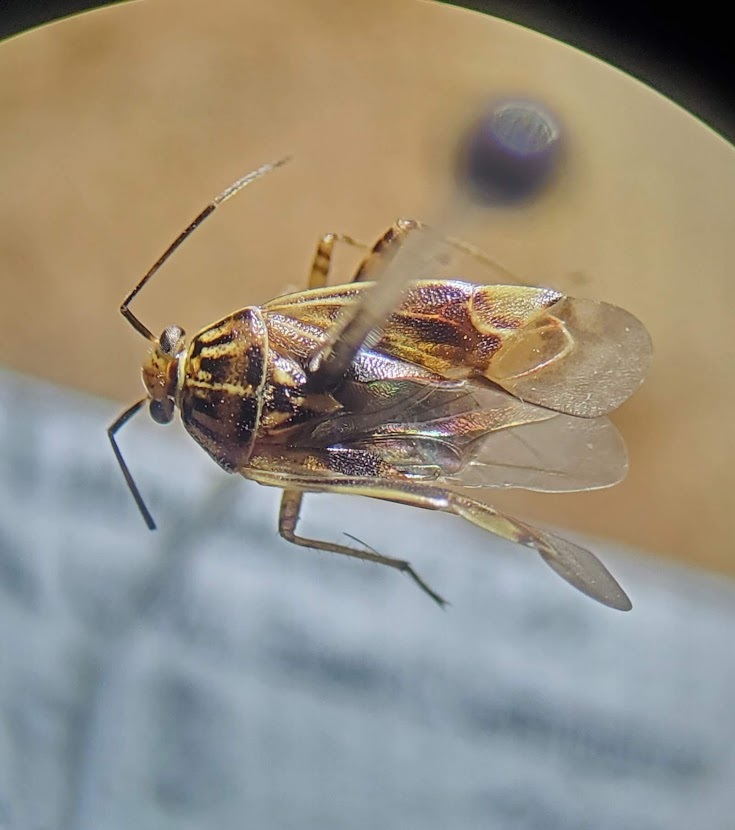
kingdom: Animalia
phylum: Arthropoda
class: Insecta
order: Hemiptera
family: Miridae
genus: Lygus
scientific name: Lygus lineolaris
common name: North american tarnished plant bug
